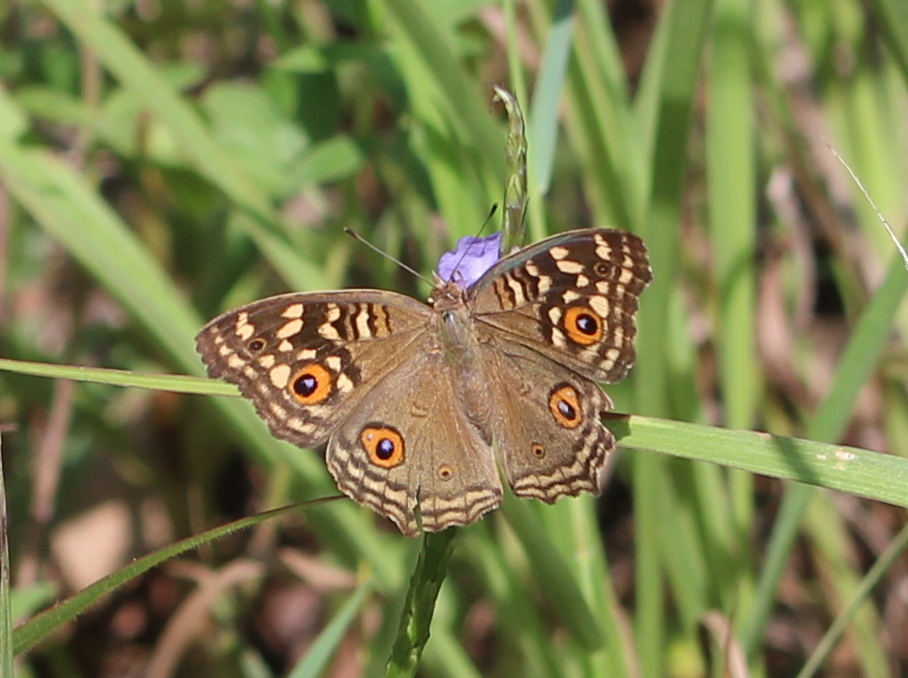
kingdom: Animalia
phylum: Arthropoda
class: Insecta
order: Lepidoptera
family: Nymphalidae
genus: Junonia
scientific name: Junonia lemonias
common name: Lemon pansy
